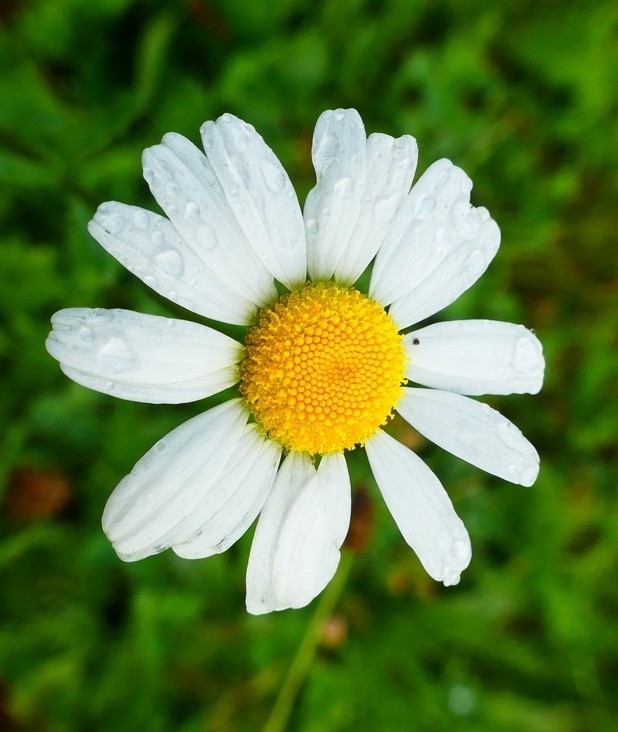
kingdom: Plantae
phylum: Tracheophyta
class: Magnoliopsida
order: Asterales
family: Asteraceae
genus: Leucanthemum
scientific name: Leucanthemum vulgare
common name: Oxeye daisy
